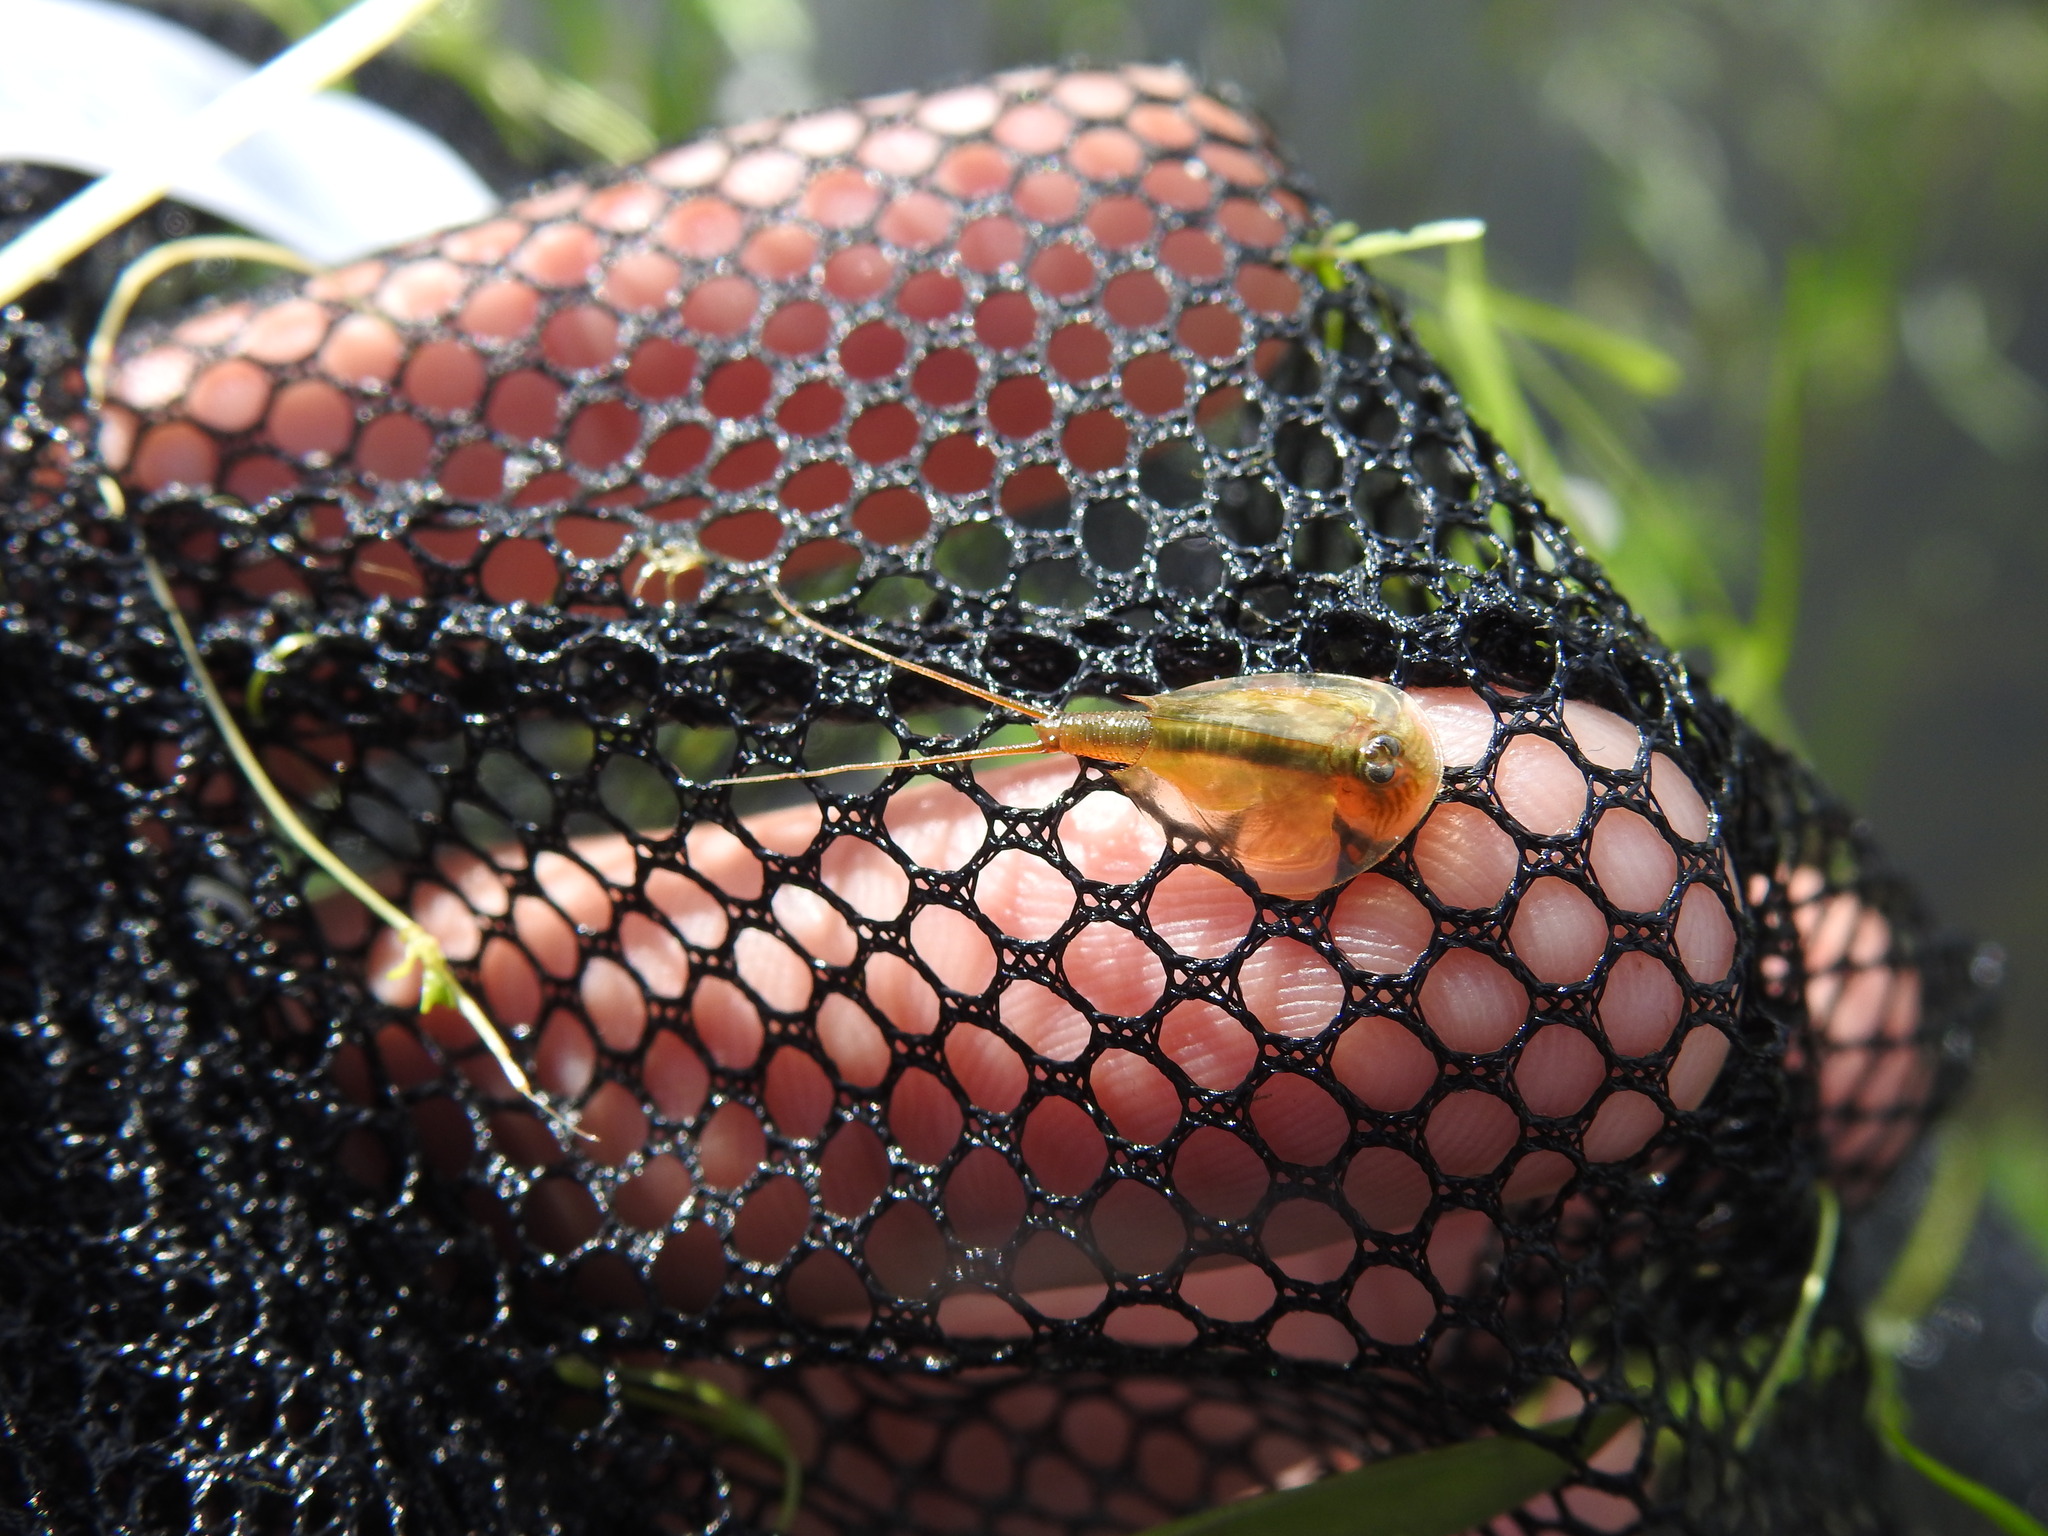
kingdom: Animalia
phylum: Arthropoda
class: Branchiopoda
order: Notostraca
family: Triopsidae
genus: Triops
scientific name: Triops baeticus
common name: Shield shrimp
